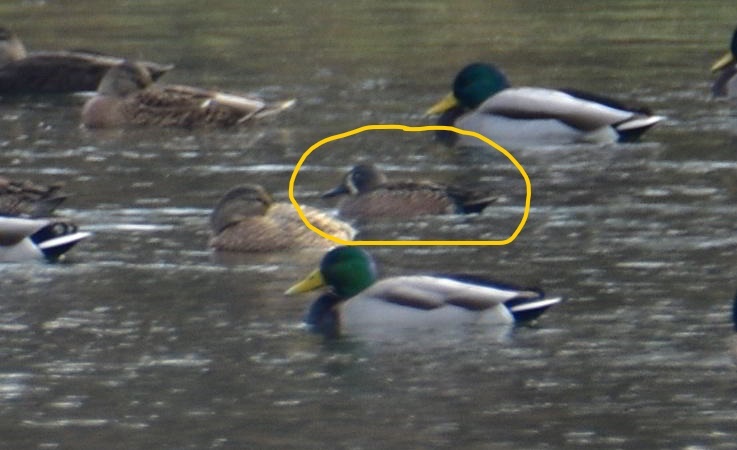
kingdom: Animalia
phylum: Chordata
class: Aves
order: Anseriformes
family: Anatidae
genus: Spatula
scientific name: Spatula discors
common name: Blue-winged teal
